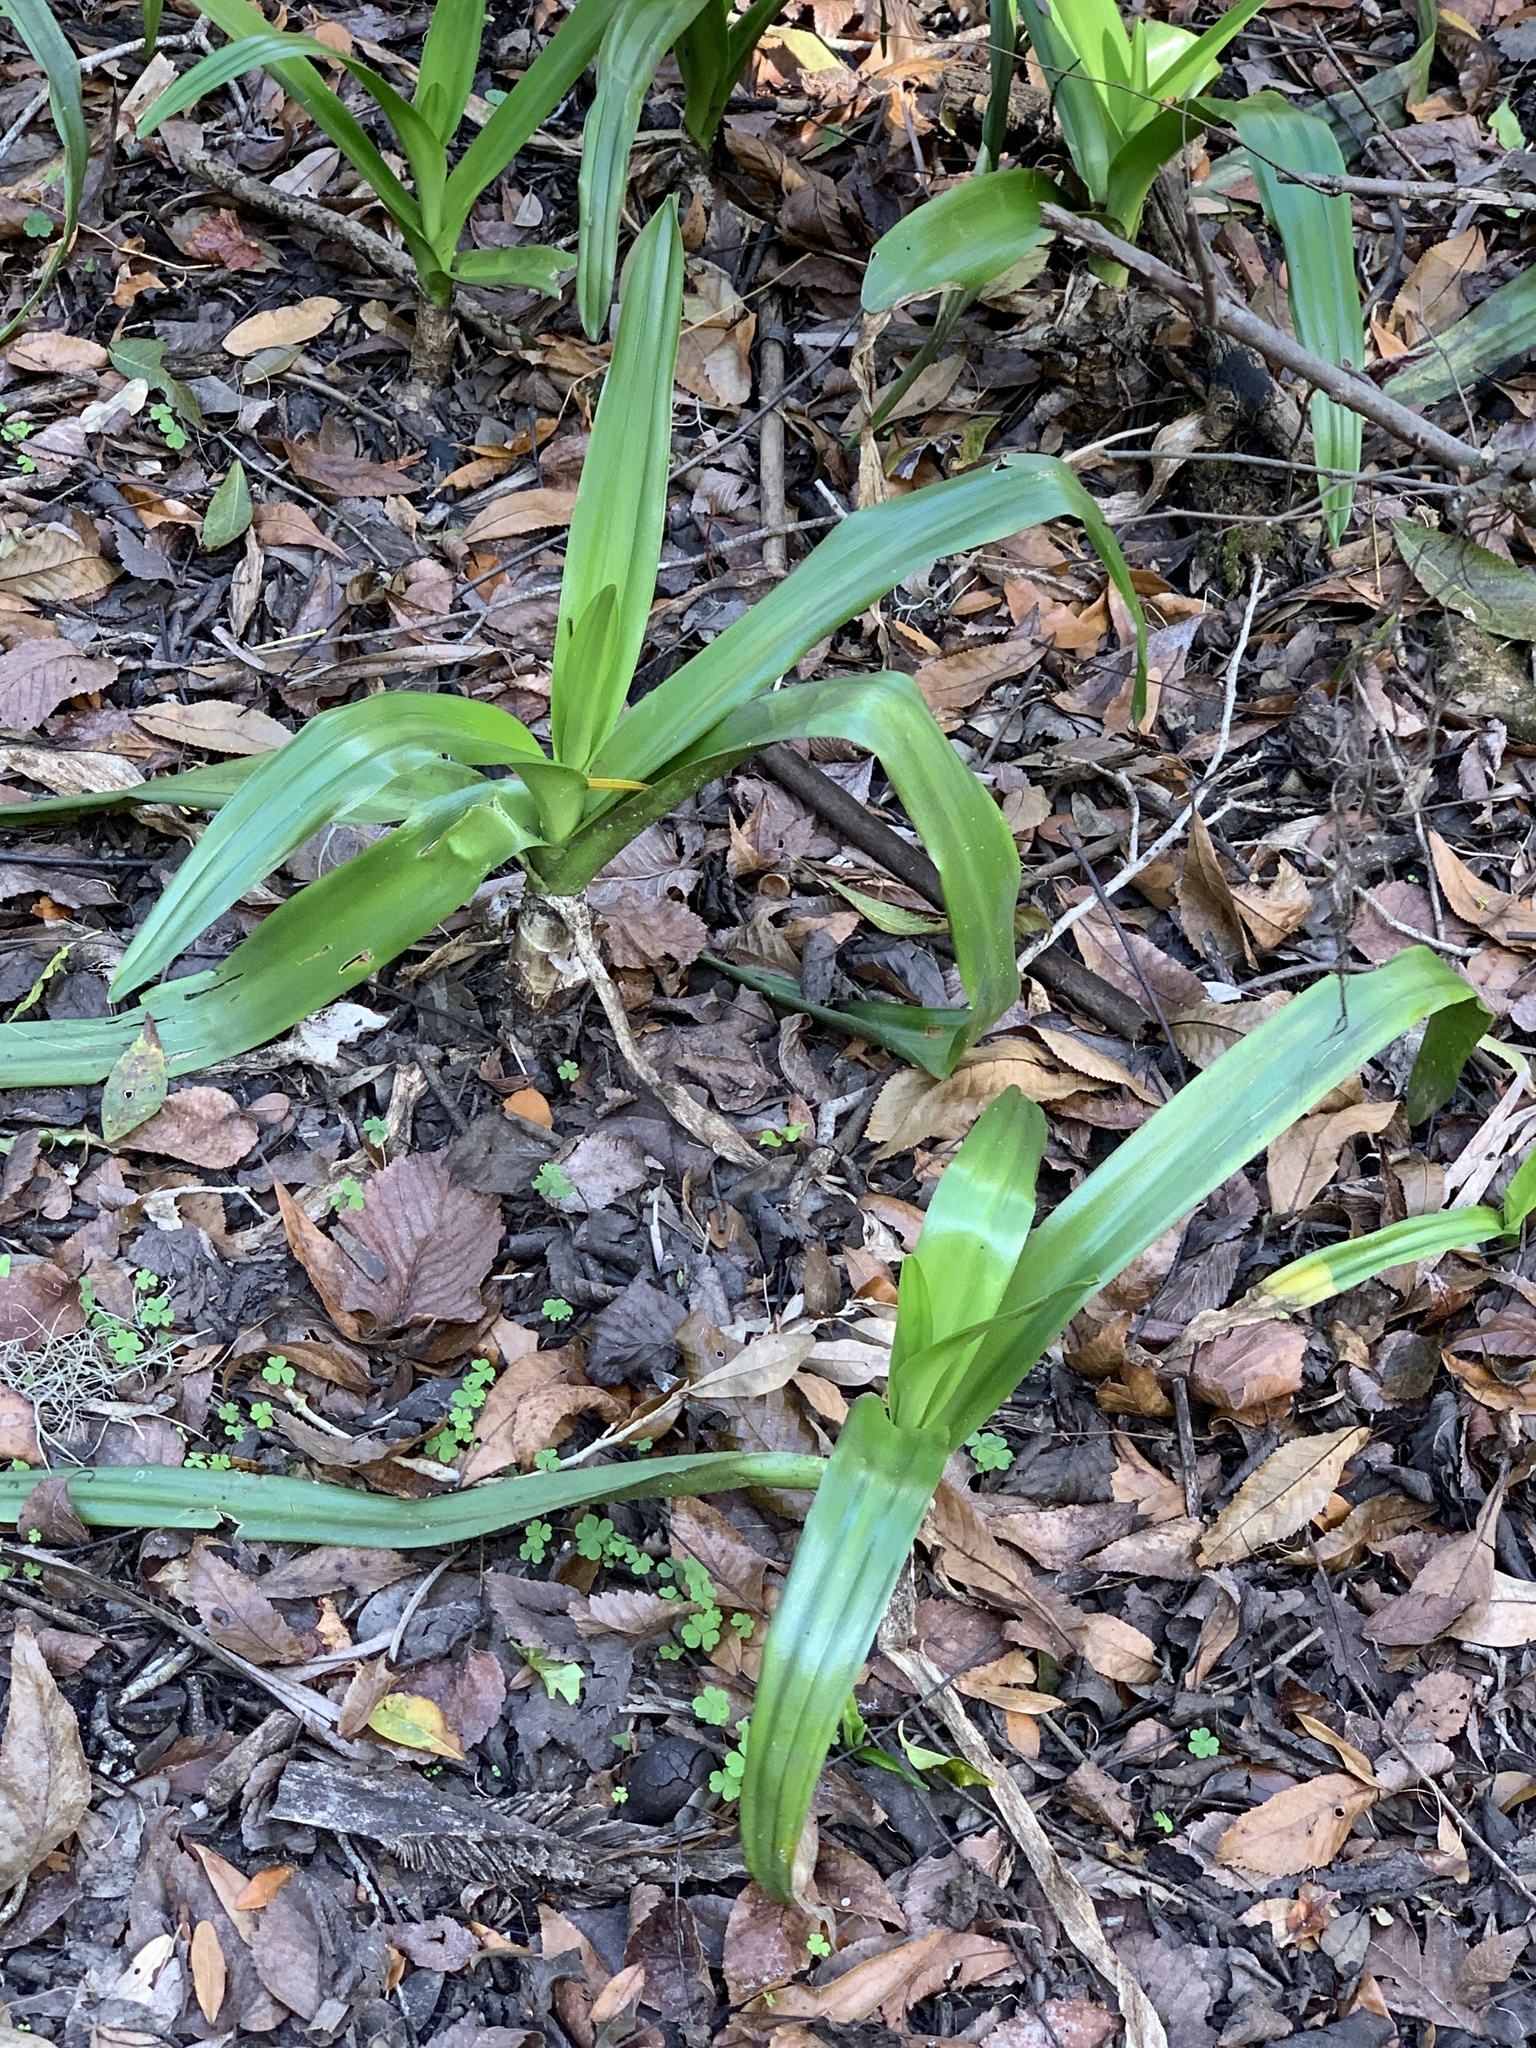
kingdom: Plantae
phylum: Tracheophyta
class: Liliopsida
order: Asparagales
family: Amaryllidaceae
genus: Crinum
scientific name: Crinum americanum
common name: Florida swamp-lily
